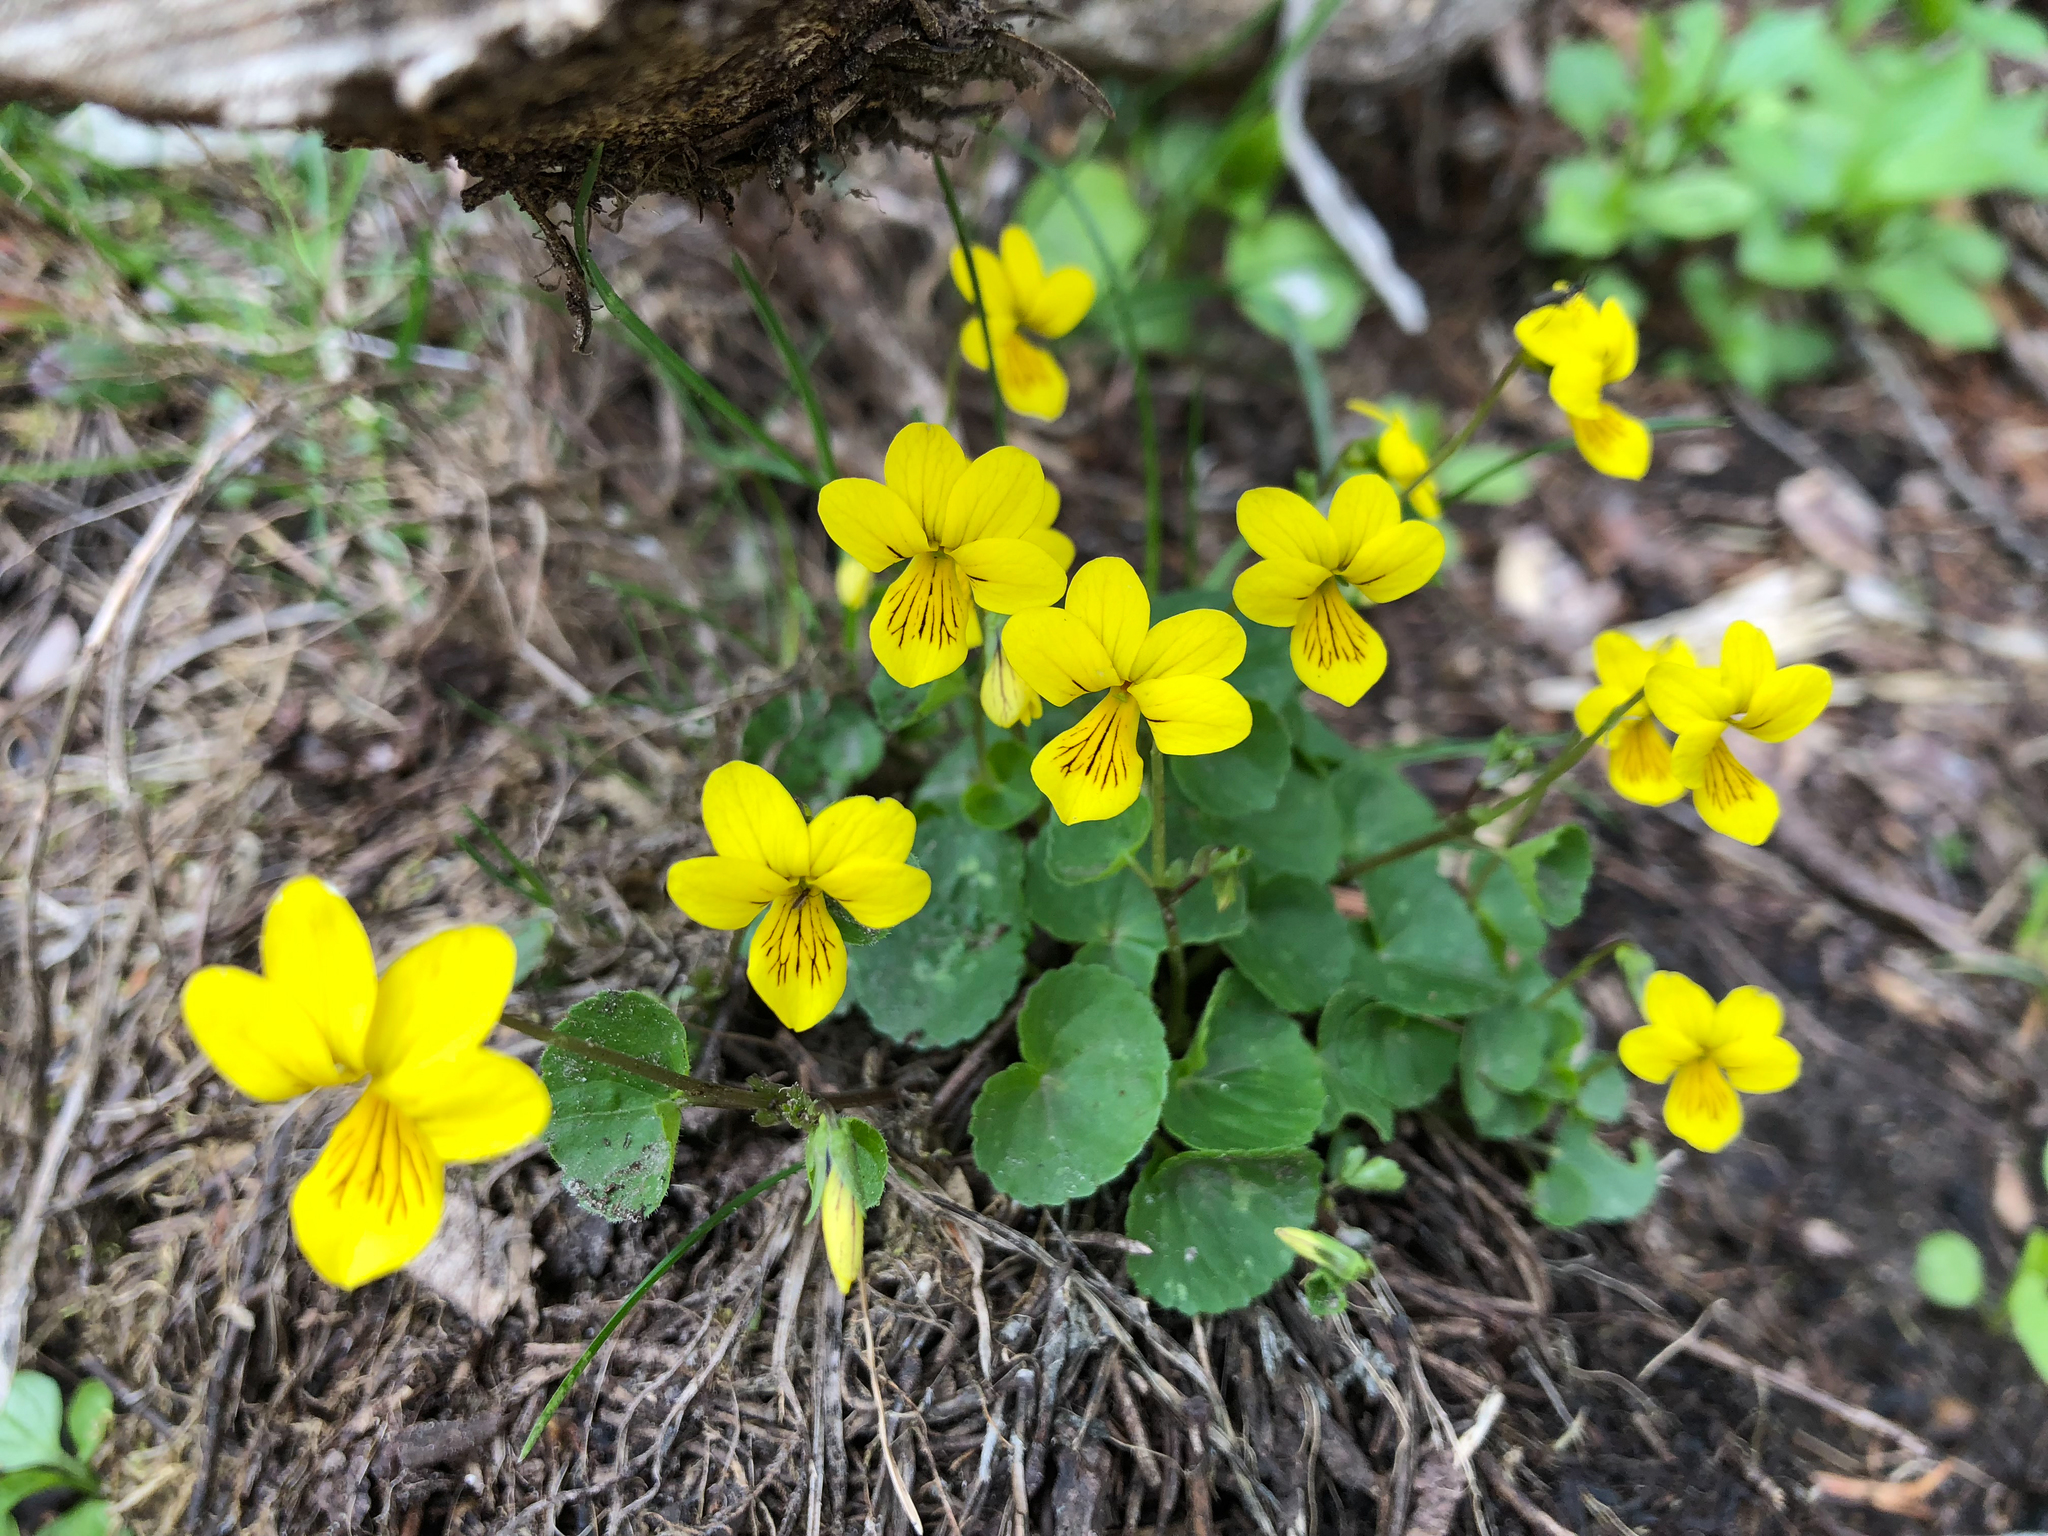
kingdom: Plantae
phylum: Tracheophyta
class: Magnoliopsida
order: Malpighiales
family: Violaceae
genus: Viola
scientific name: Viola biflora
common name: Alpine yellow violet
